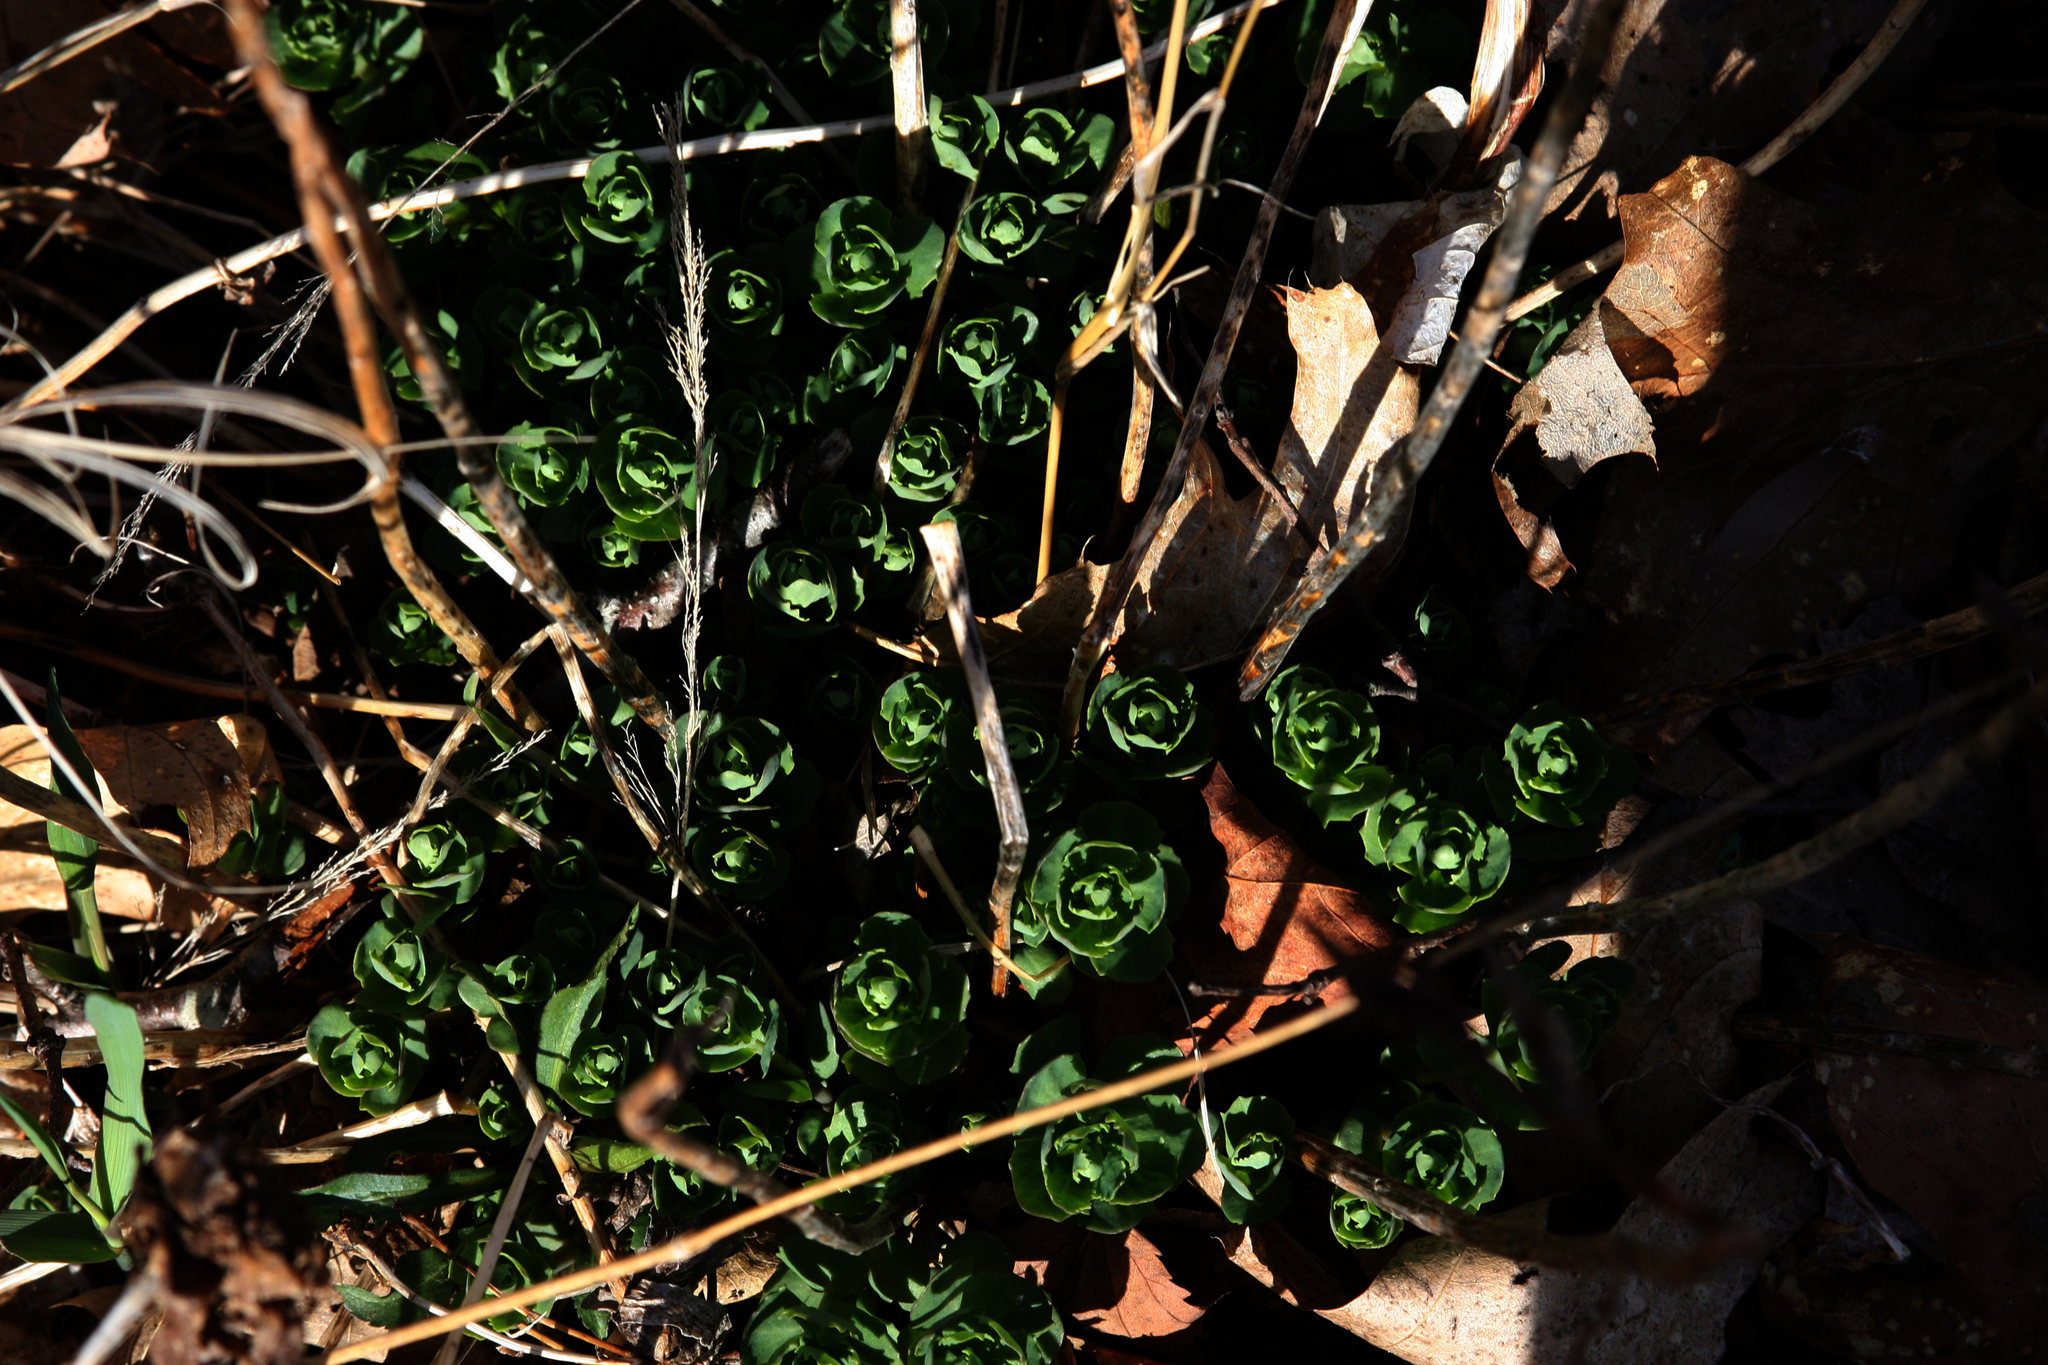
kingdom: Plantae
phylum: Tracheophyta
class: Magnoliopsida
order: Saxifragales
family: Crassulaceae
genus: Hylotelephium
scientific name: Hylotelephium telephium
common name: Live-forever
